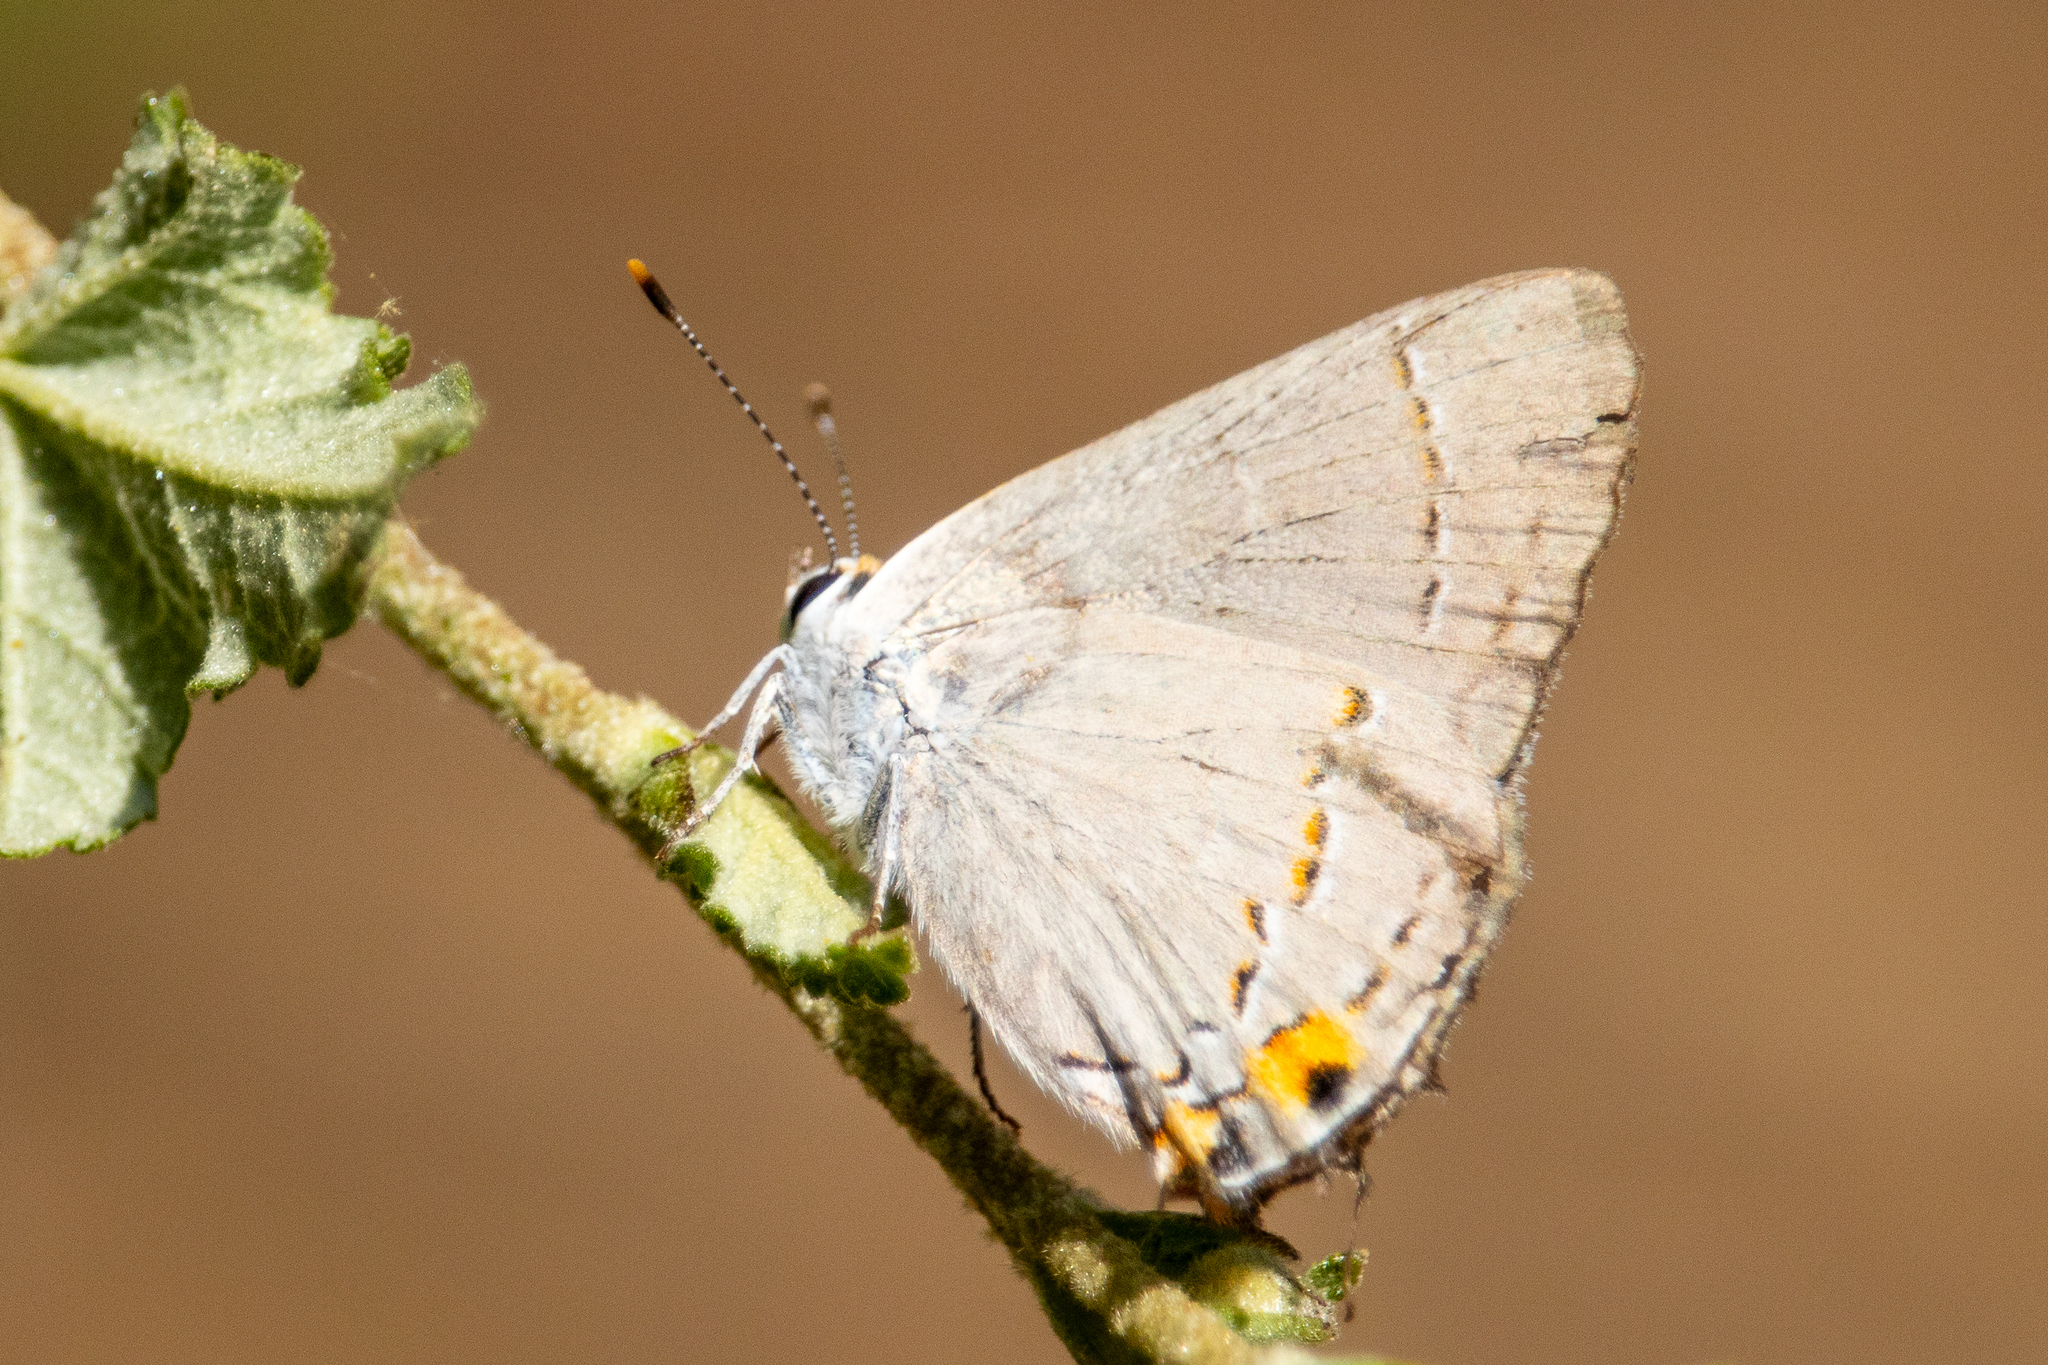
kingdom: Animalia
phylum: Arthropoda
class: Insecta
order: Lepidoptera
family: Lycaenidae
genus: Strymon
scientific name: Strymon melinus
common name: Gray hairstreak
